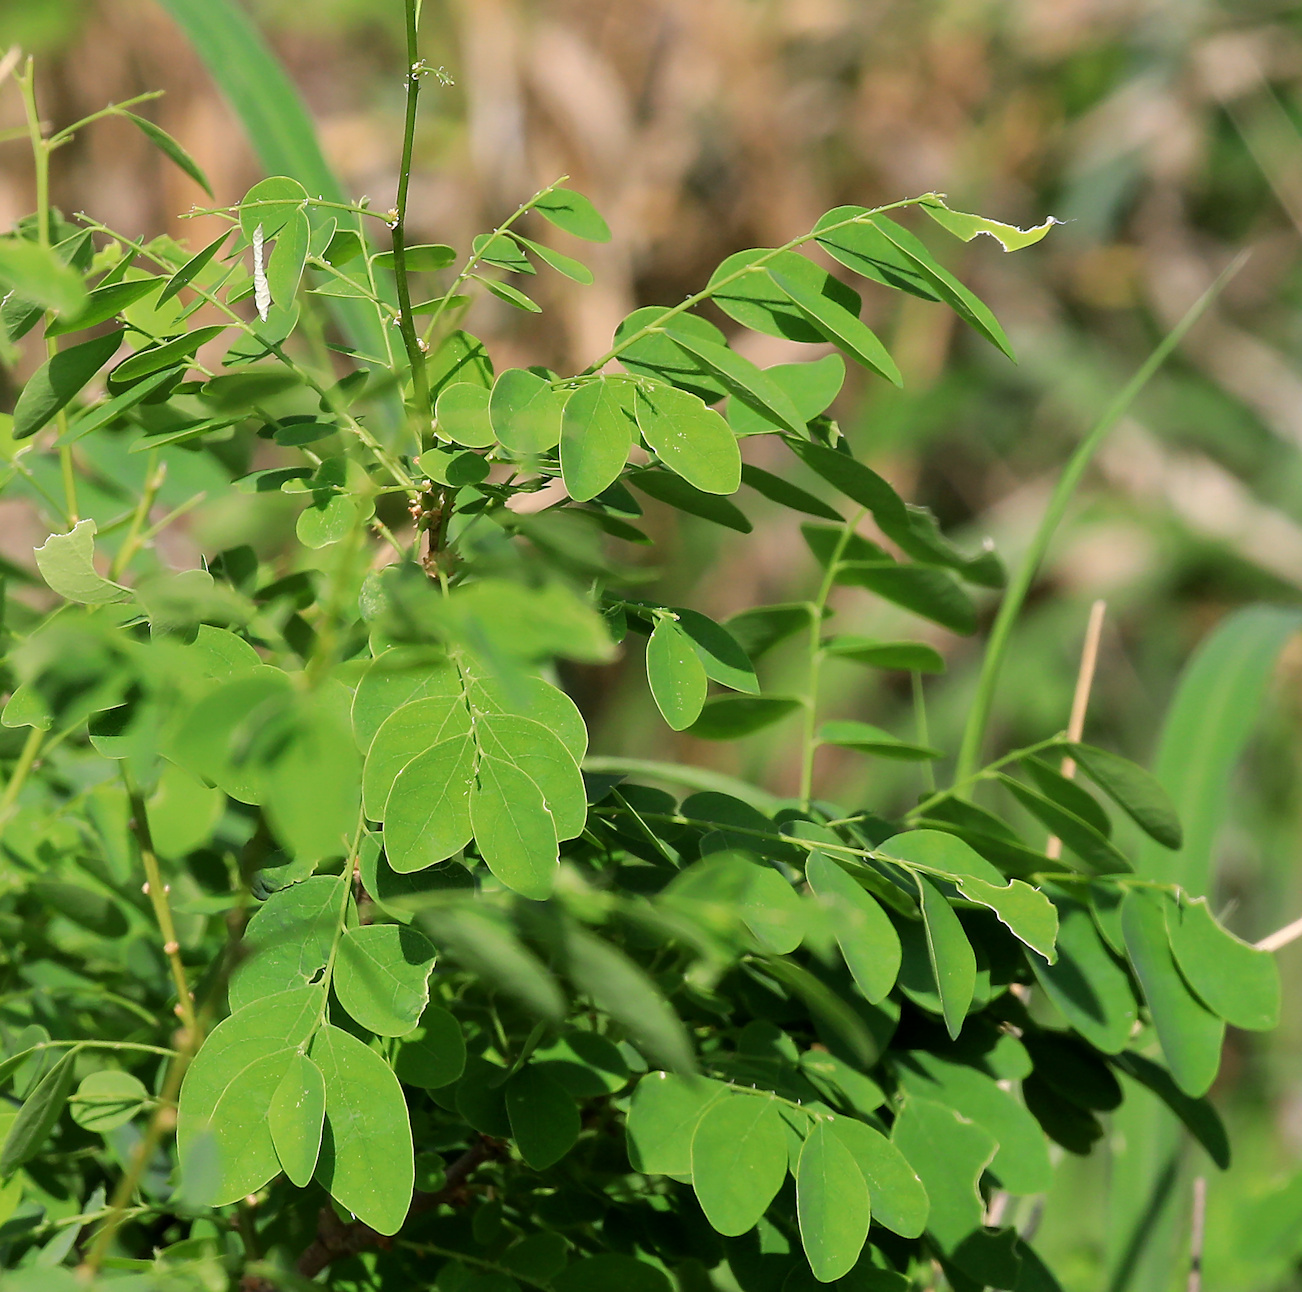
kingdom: Plantae
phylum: Tracheophyta
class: Magnoliopsida
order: Malpighiales
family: Phyllanthaceae
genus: Phyllanthus
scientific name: Phyllanthus reticulatus
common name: Potato bush
